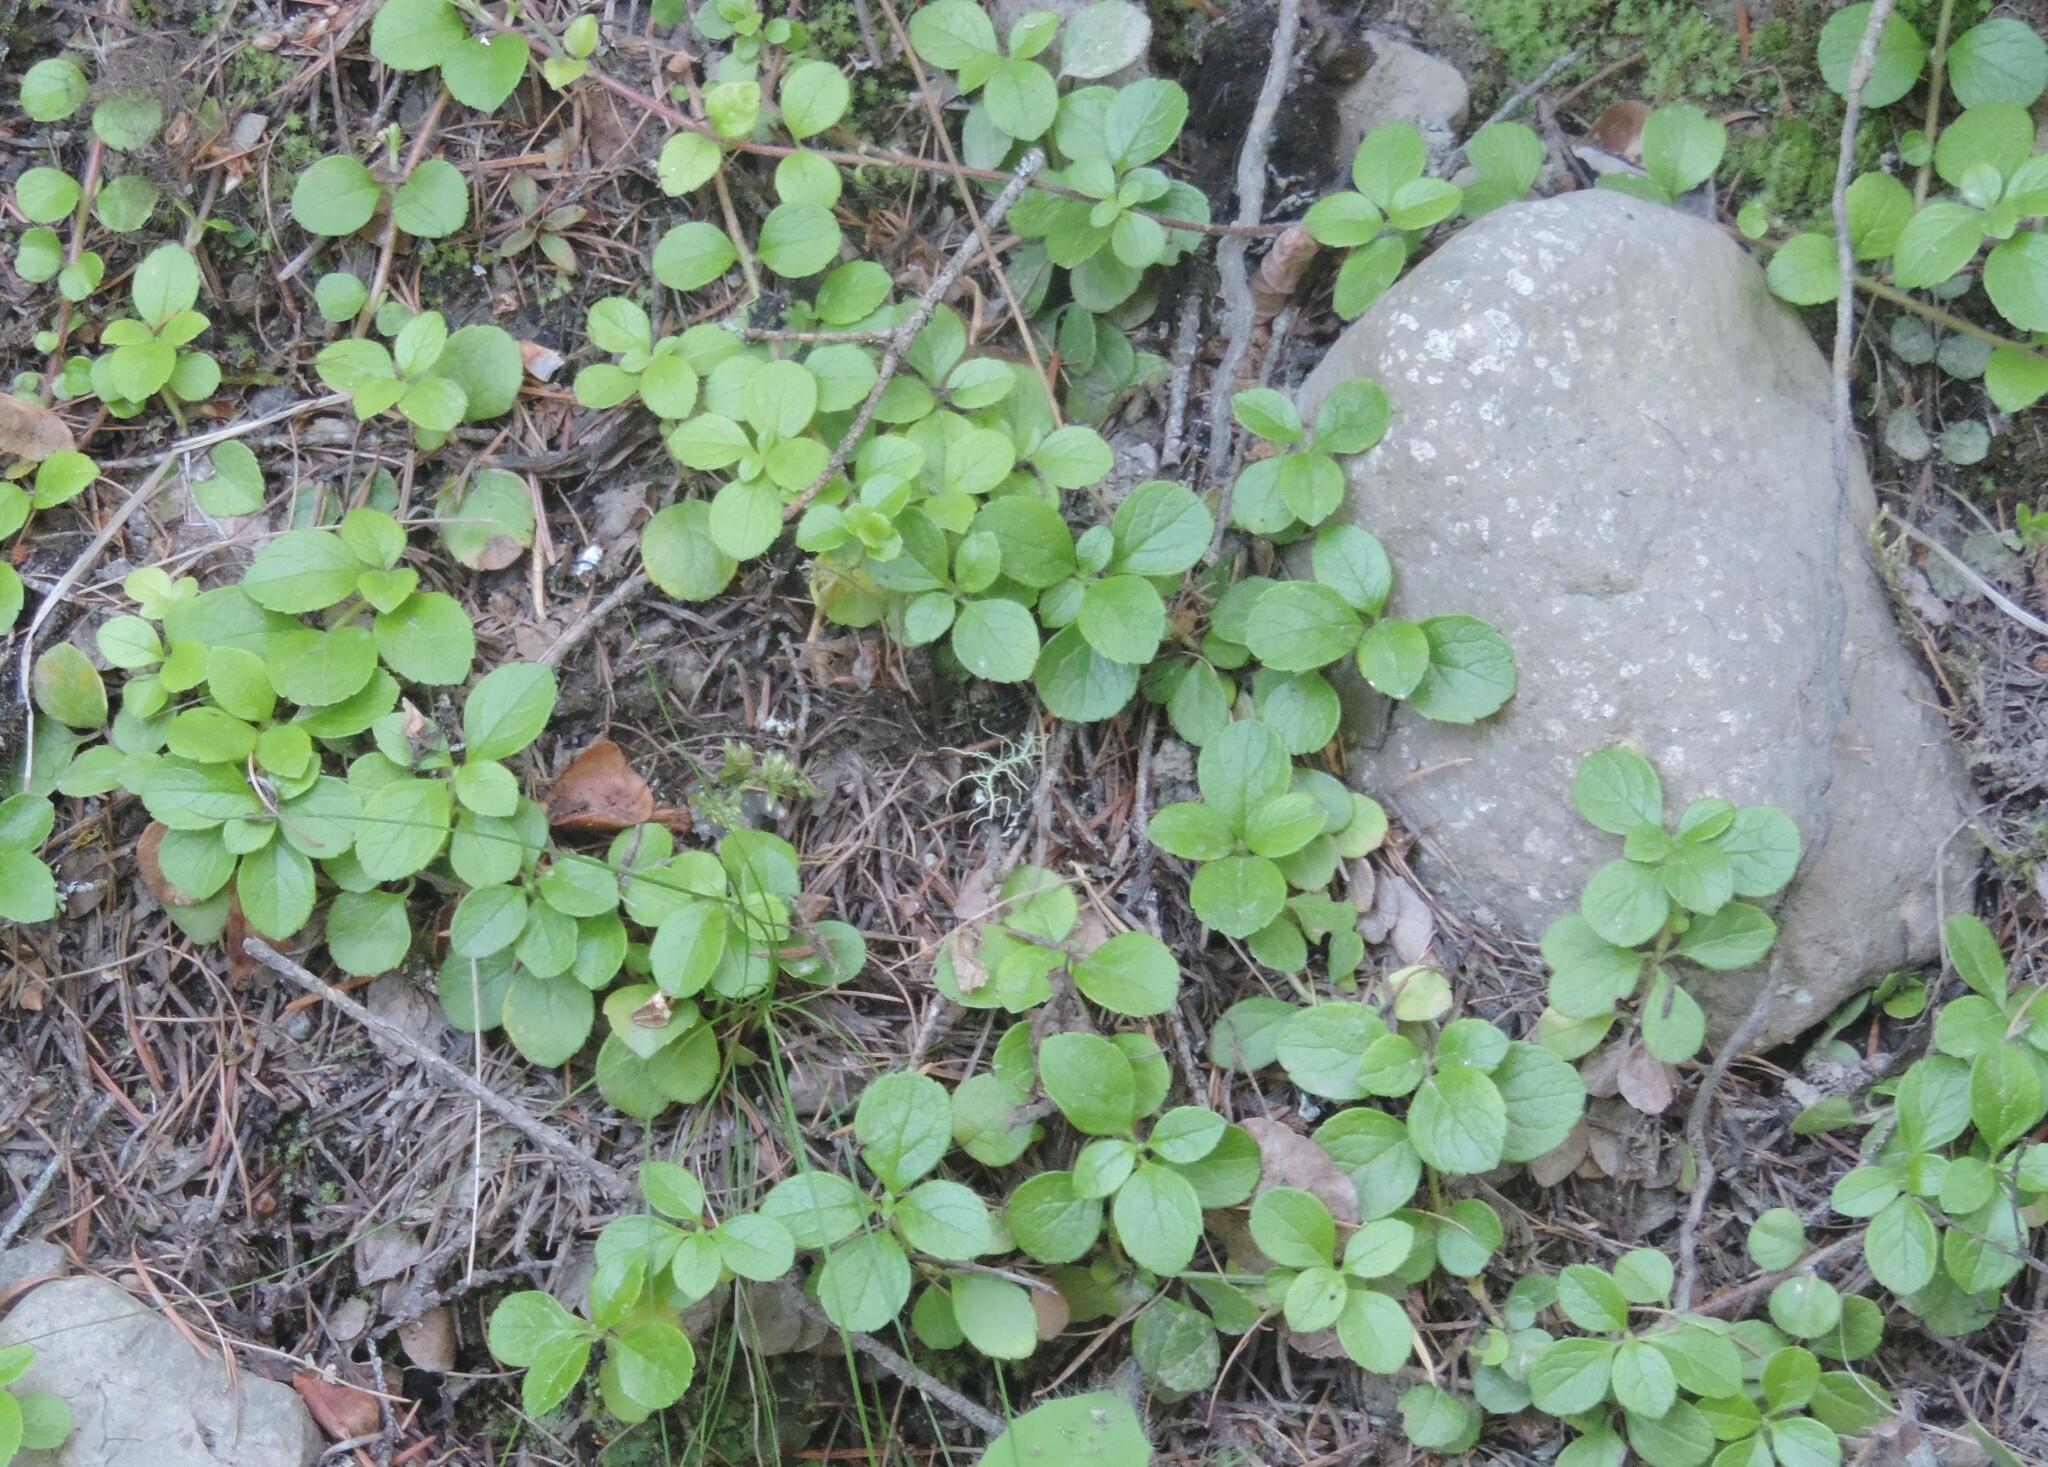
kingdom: Plantae
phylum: Tracheophyta
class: Magnoliopsida
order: Dipsacales
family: Caprifoliaceae
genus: Linnaea
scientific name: Linnaea borealis
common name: Twinflower
